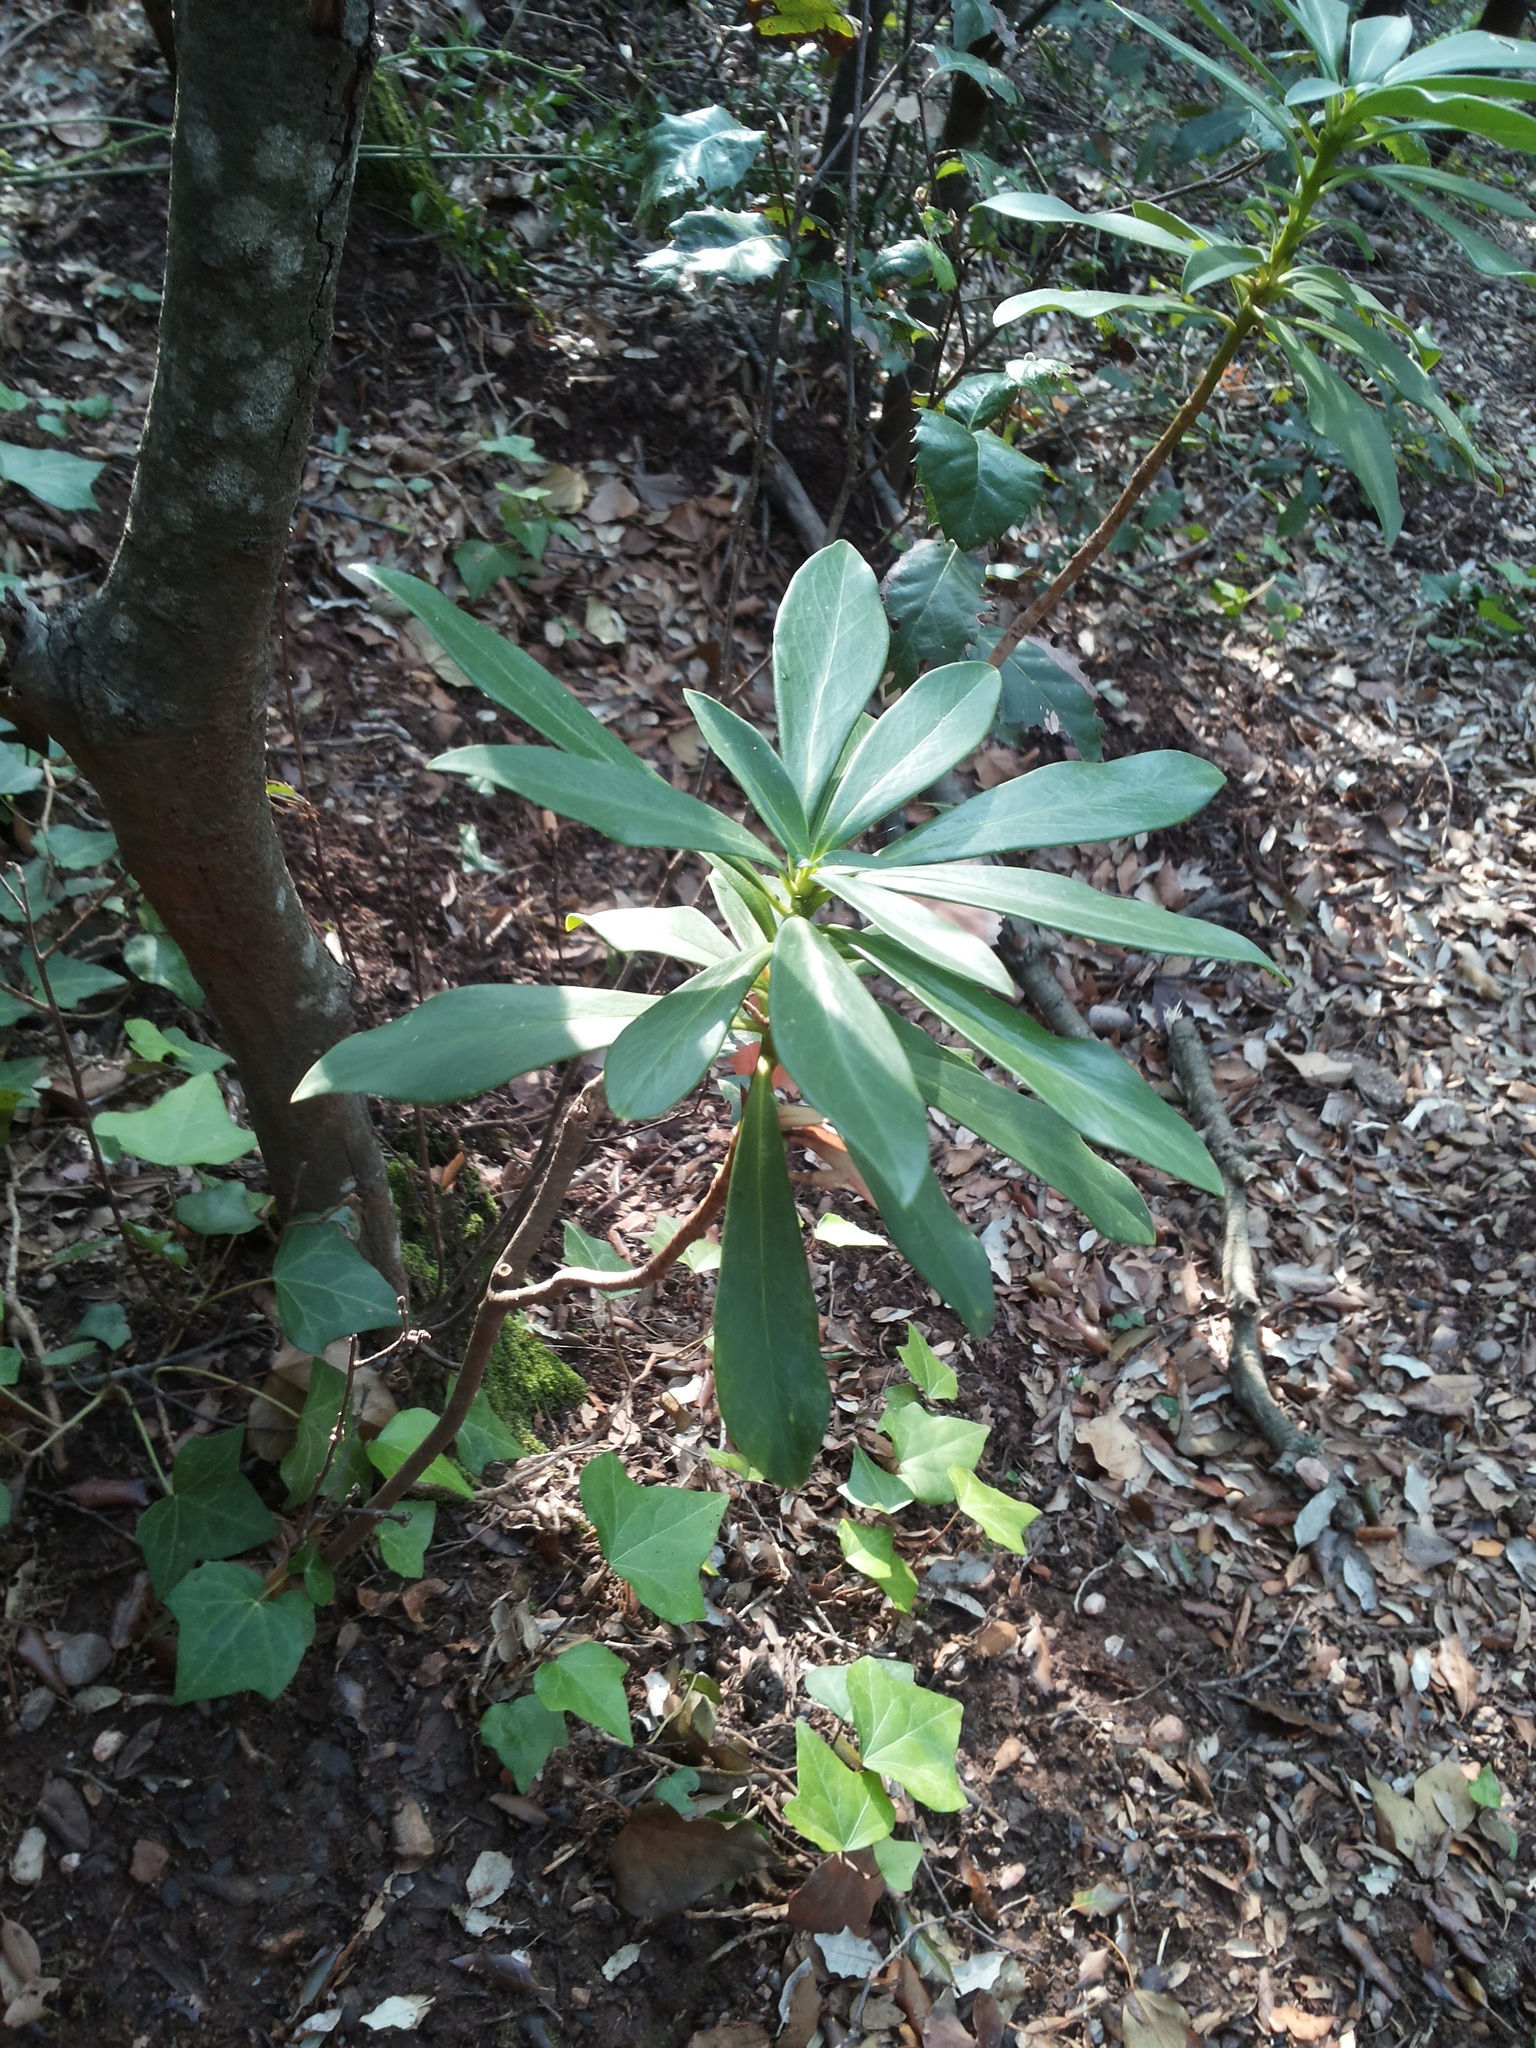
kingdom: Plantae
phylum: Tracheophyta
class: Magnoliopsida
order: Malvales
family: Thymelaeaceae
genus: Daphne
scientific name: Daphne laureola
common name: Spurge-laurel
